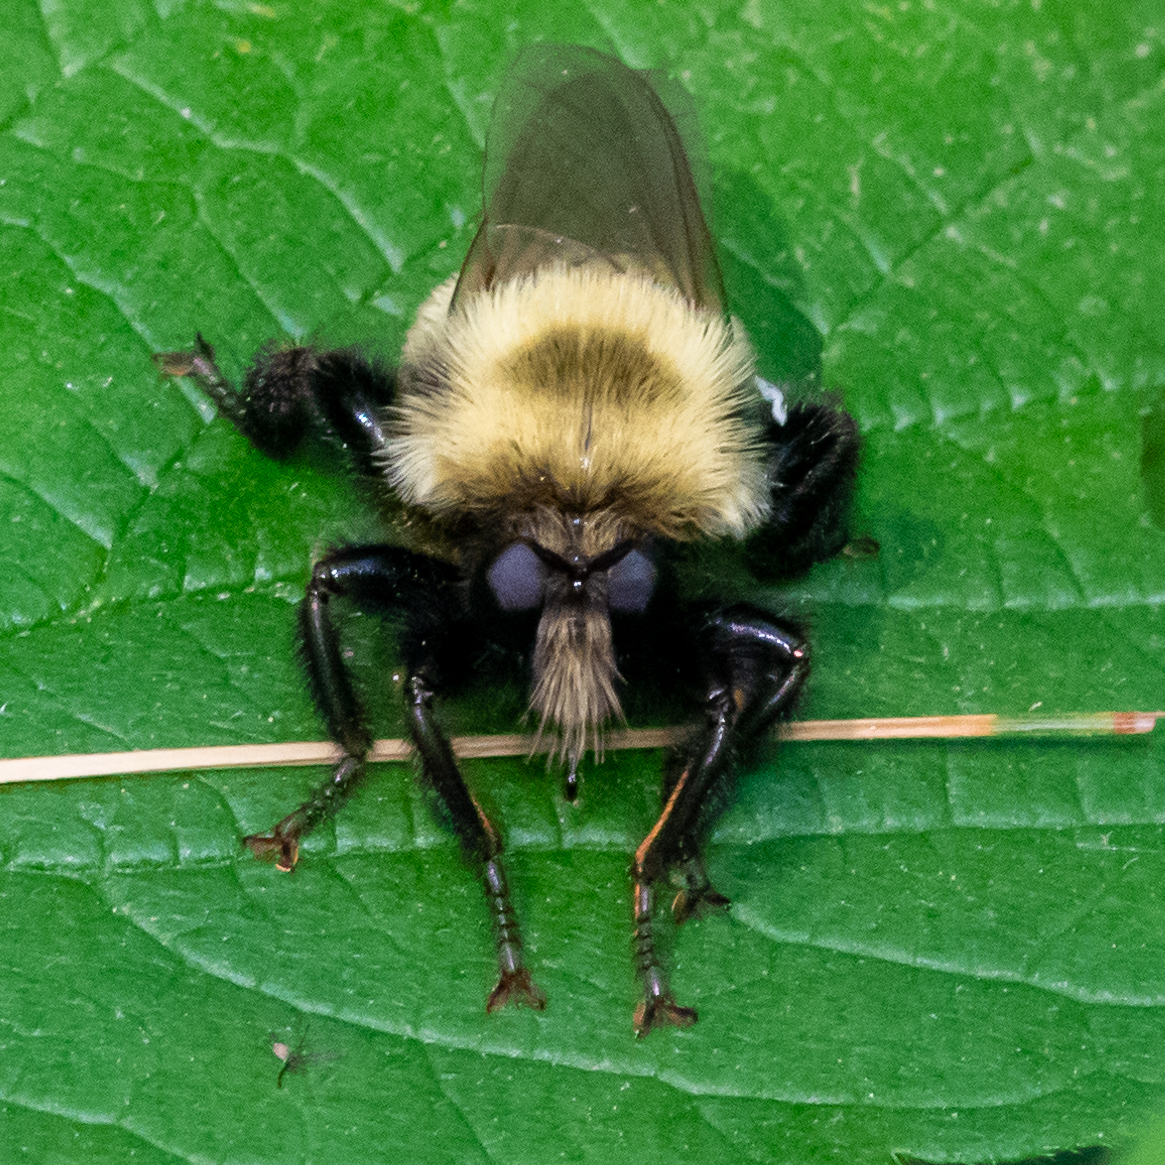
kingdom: Animalia
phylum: Arthropoda
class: Insecta
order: Diptera
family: Asilidae
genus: Laphria
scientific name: Laphria thoracica
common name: Bumble bee mimic robber fly
